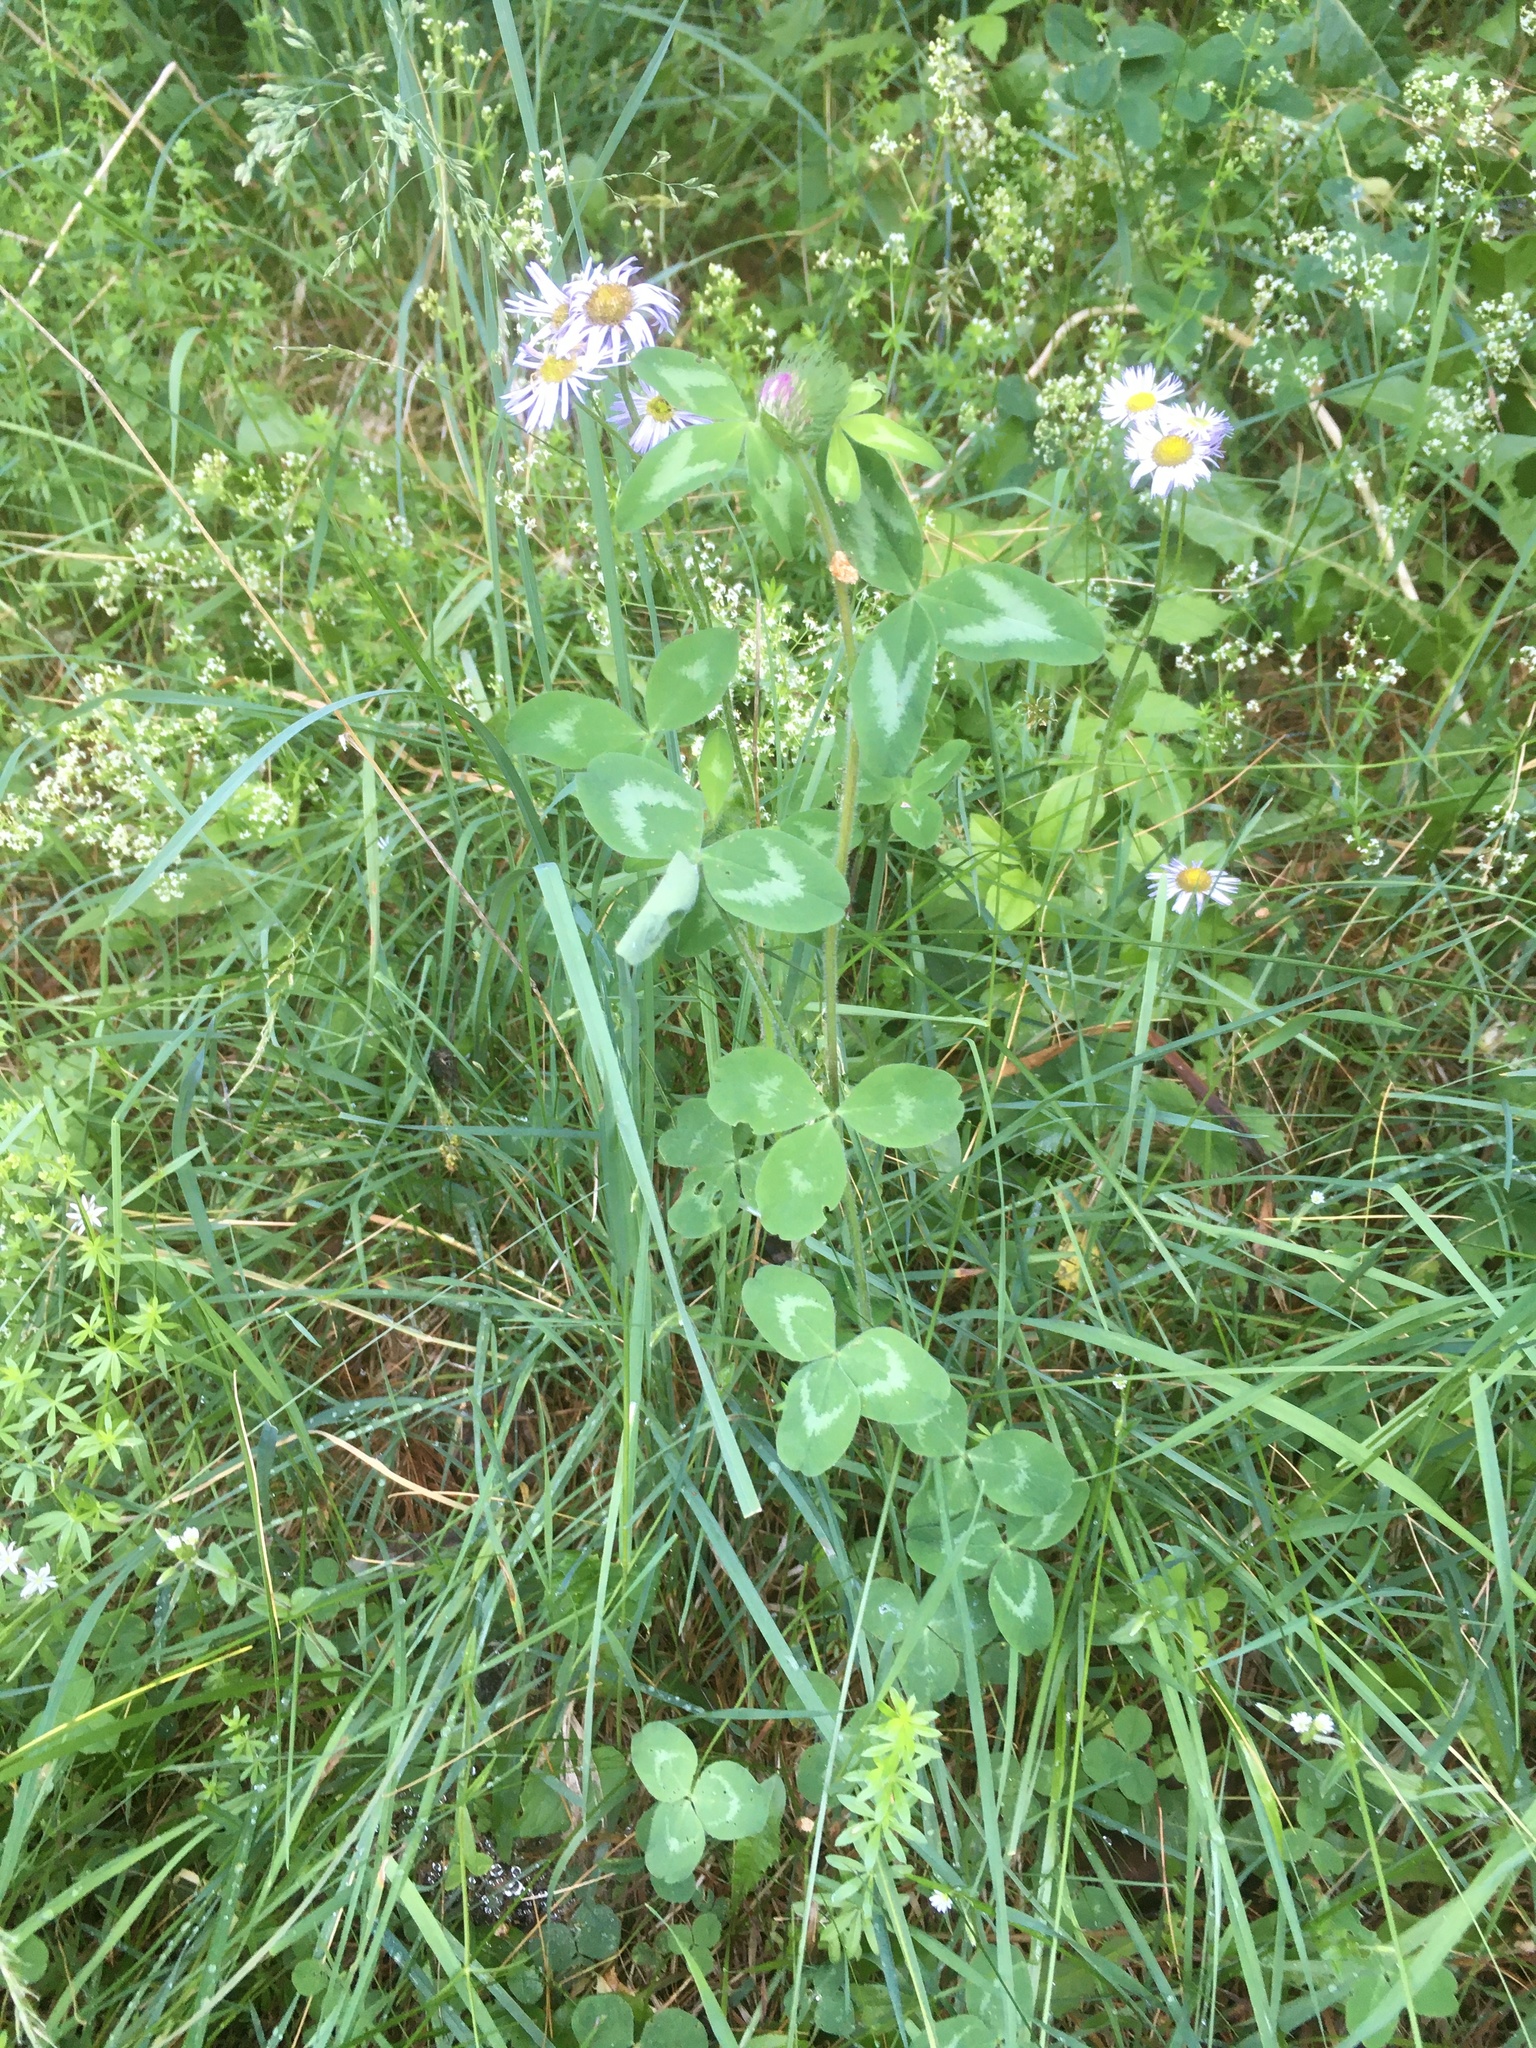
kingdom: Plantae
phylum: Tracheophyta
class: Magnoliopsida
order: Fabales
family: Fabaceae
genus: Trifolium
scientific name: Trifolium pratense
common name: Red clover
